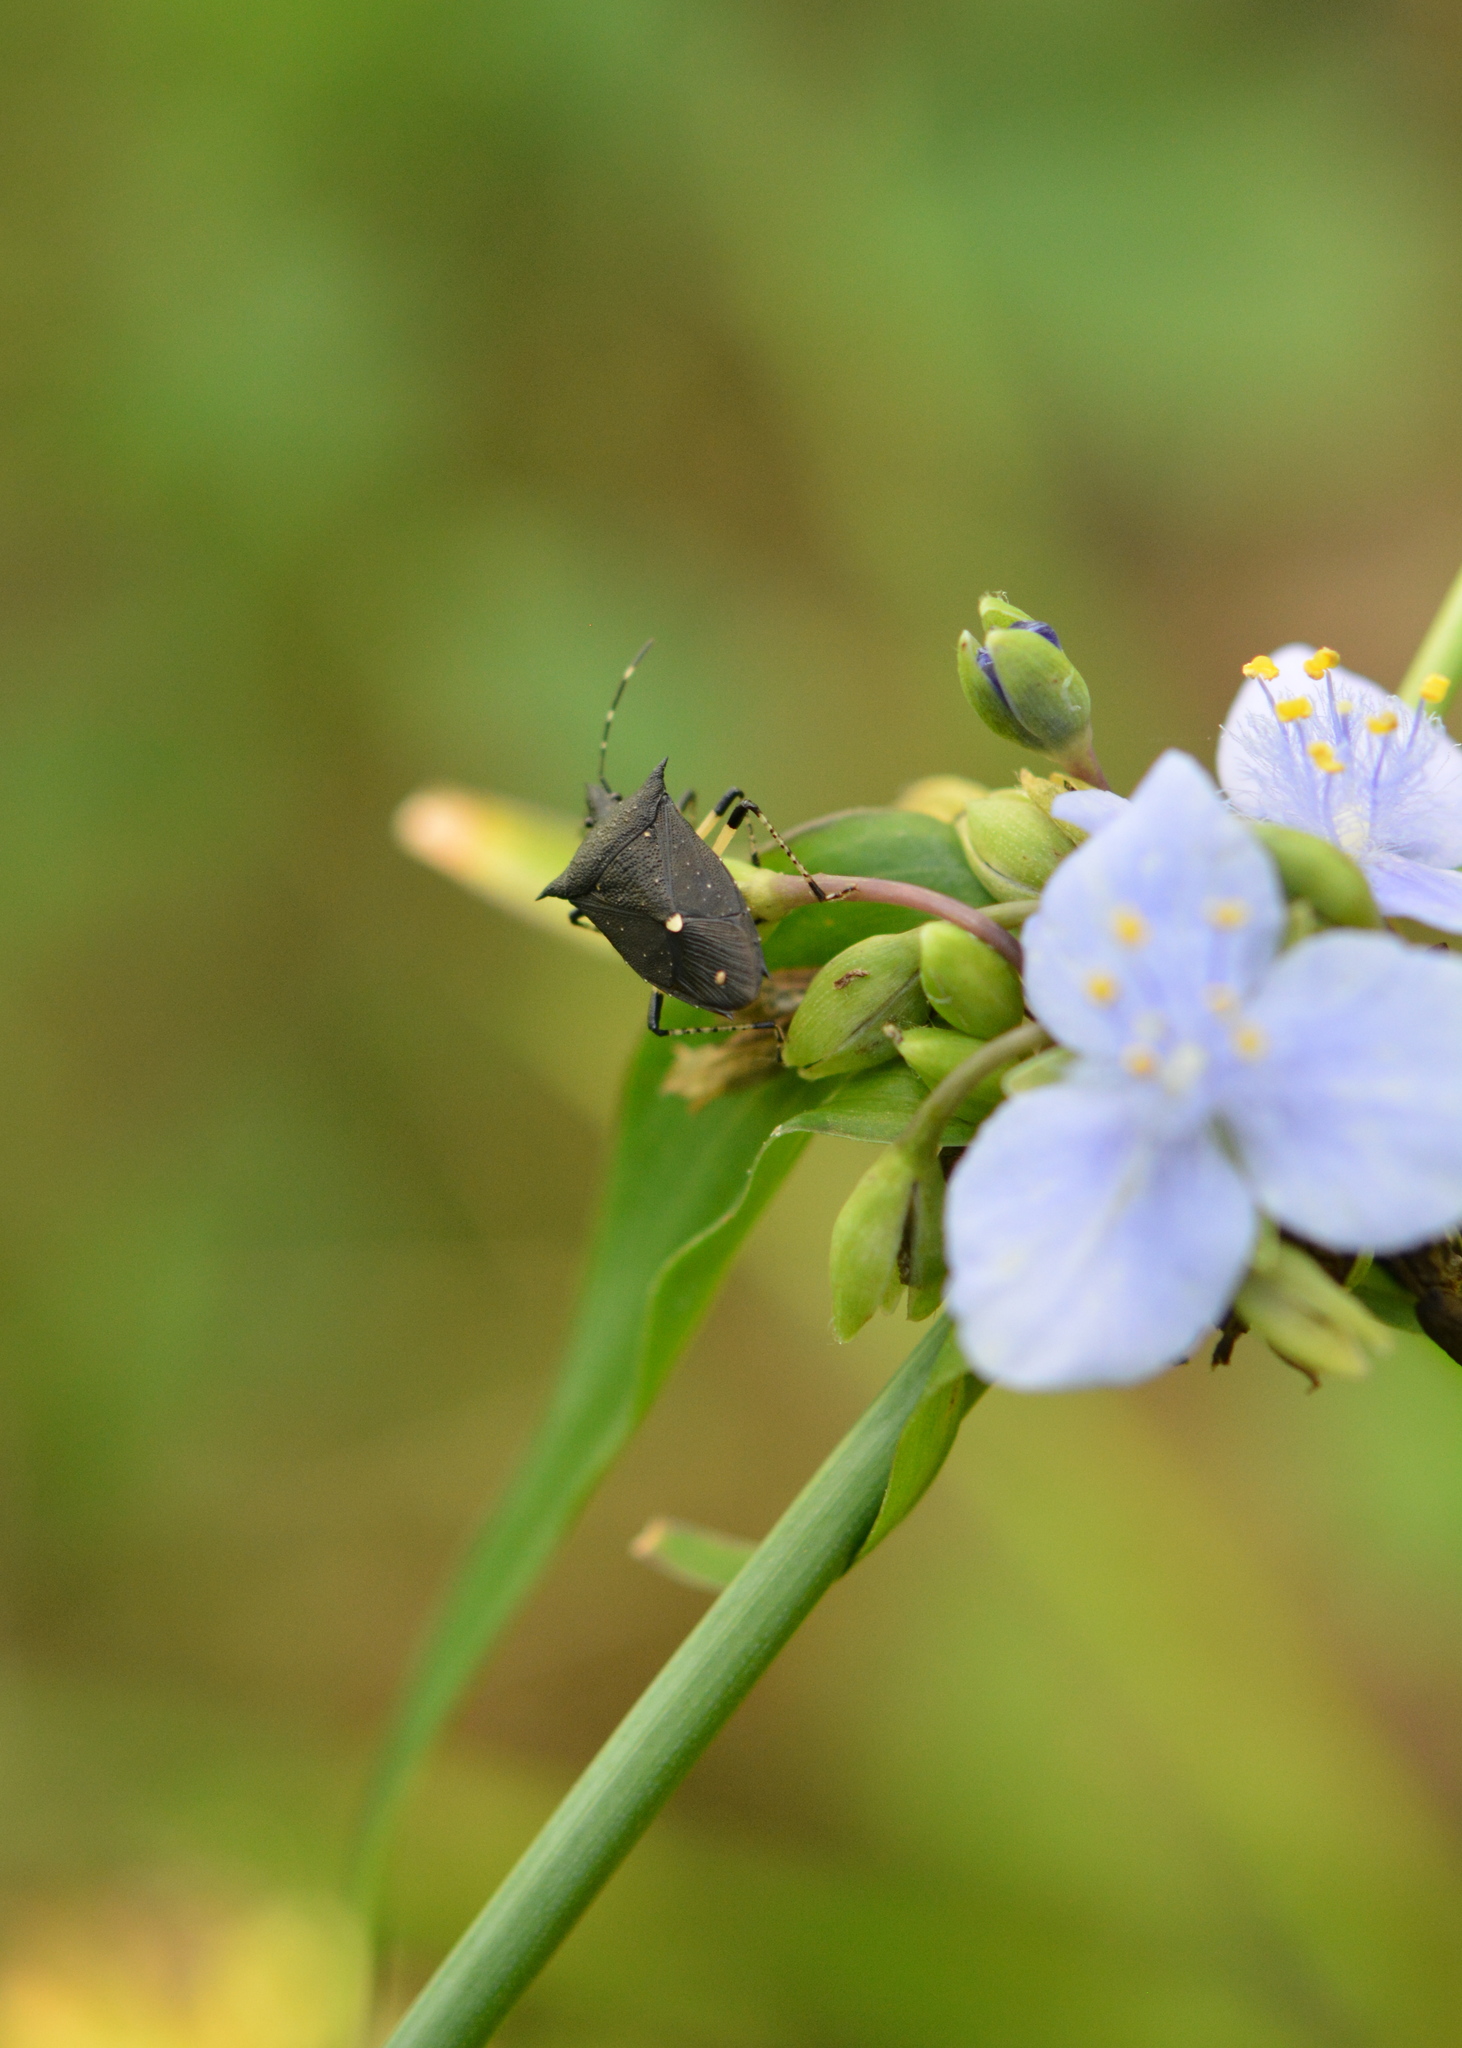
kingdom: Animalia
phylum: Arthropoda
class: Insecta
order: Hemiptera
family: Pentatomidae
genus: Proxys
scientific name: Proxys punctulatus
